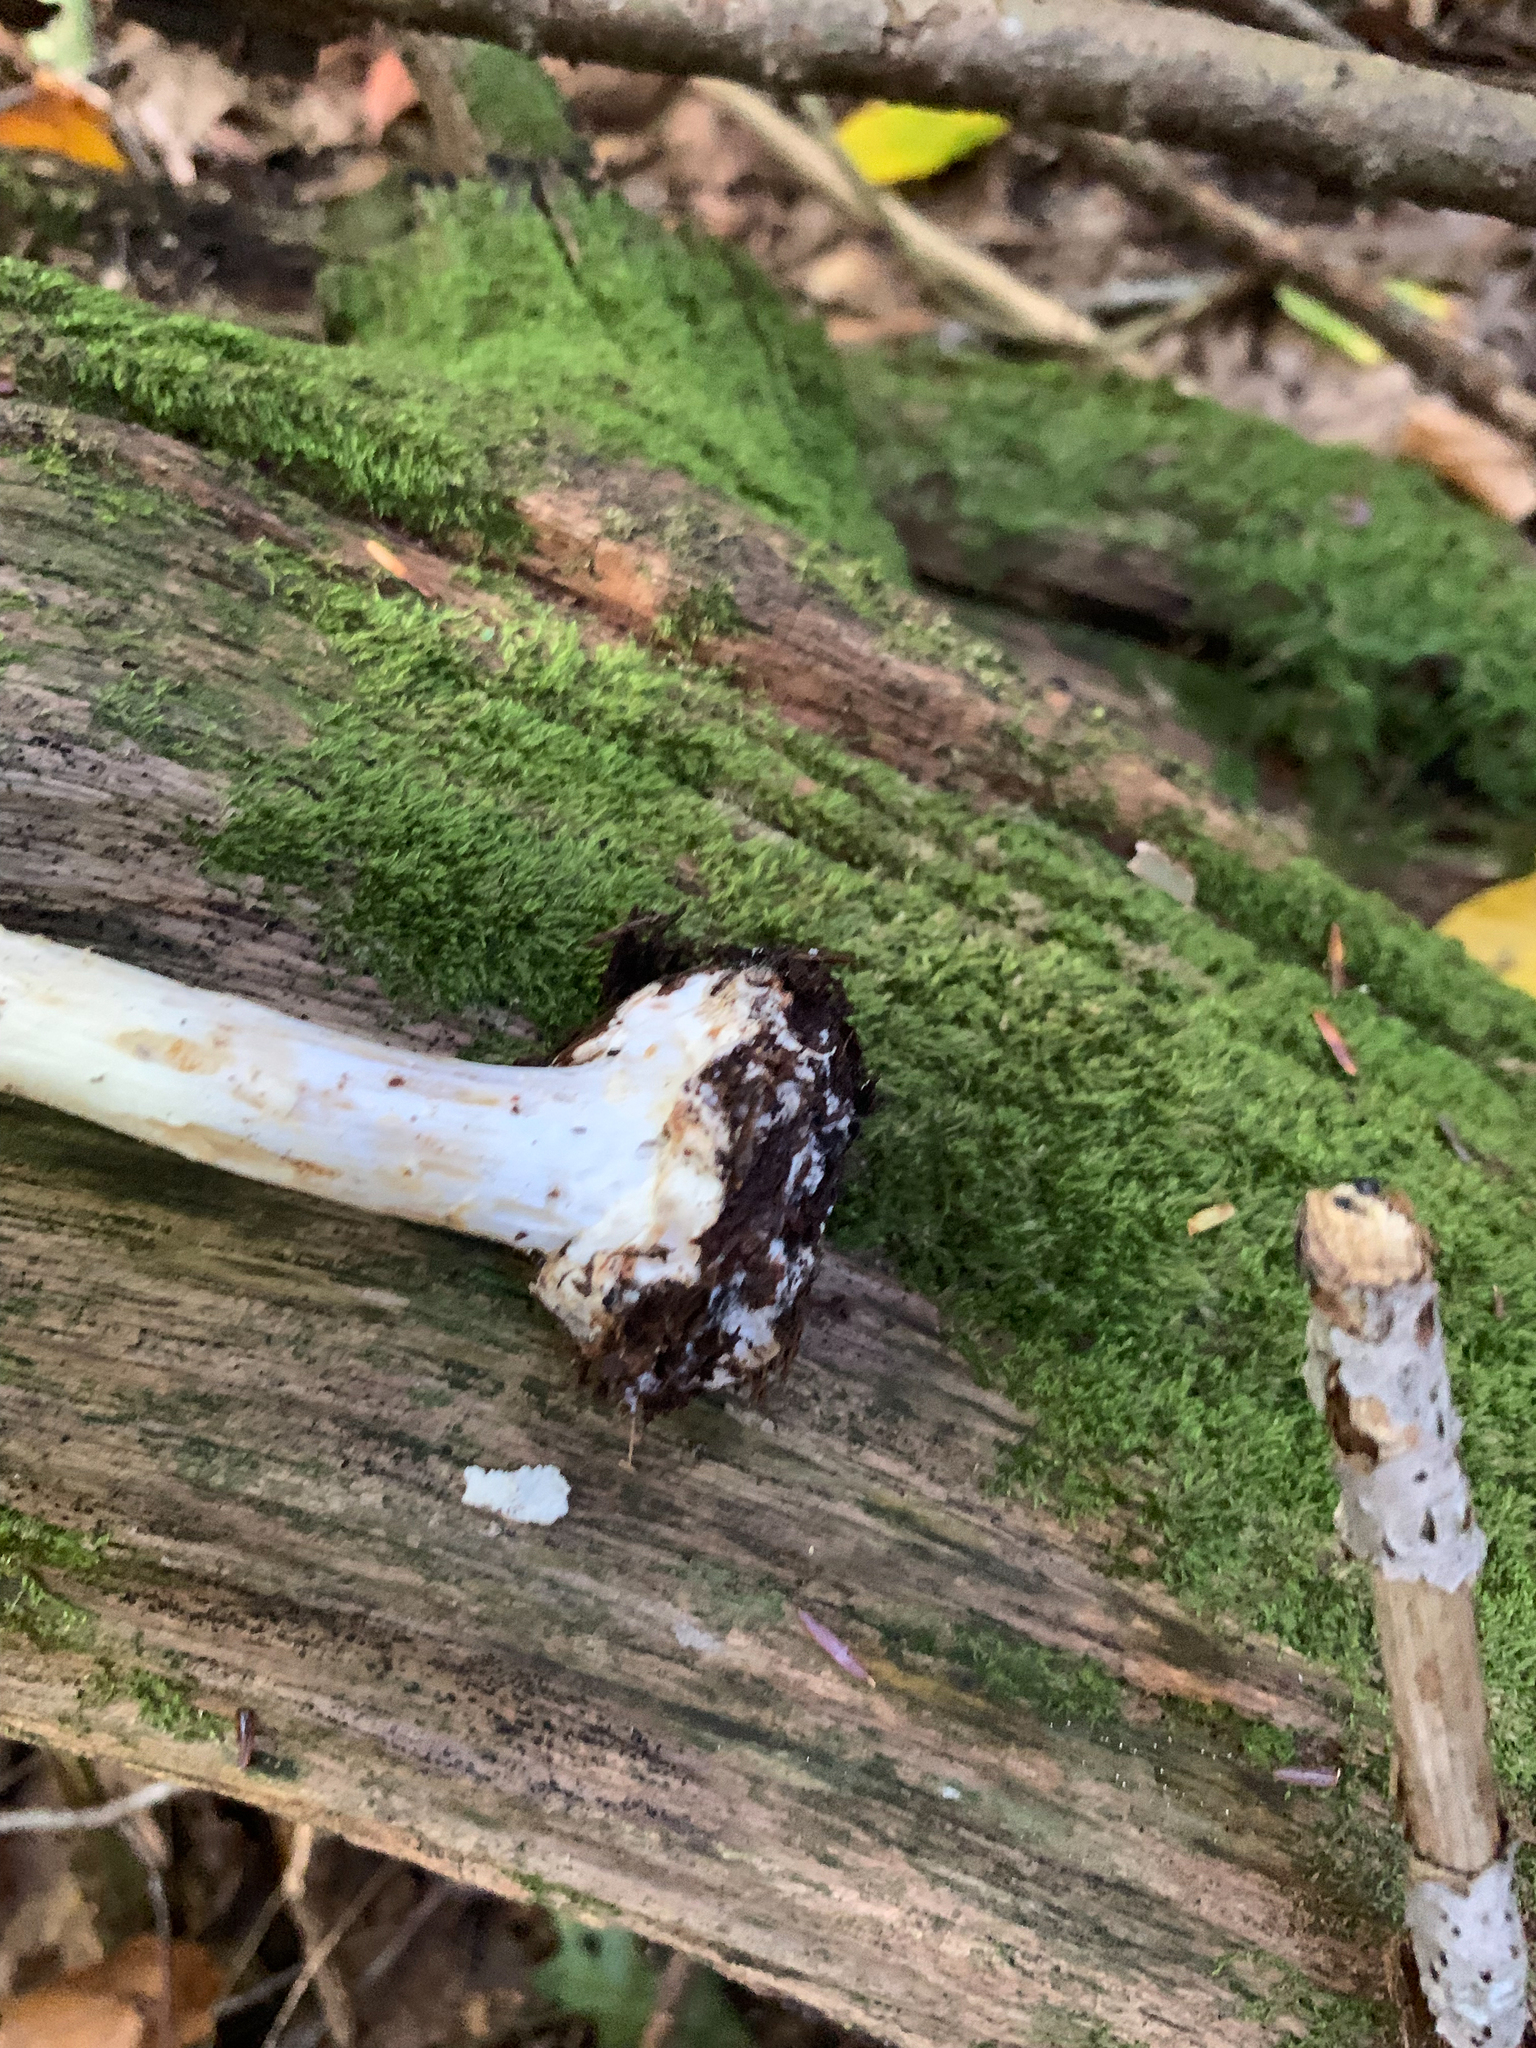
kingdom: Fungi
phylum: Basidiomycota
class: Agaricomycetes
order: Agaricales
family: Amanitaceae
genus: Amanita
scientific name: Amanita lavendula
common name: Coker's lavender staining amanita
